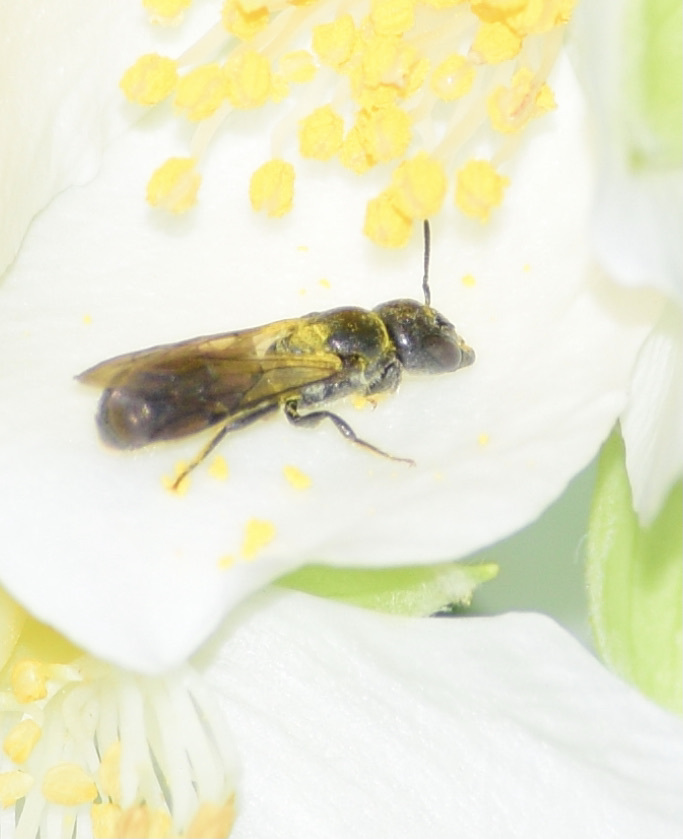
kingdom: Animalia
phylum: Arthropoda
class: Insecta
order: Hymenoptera
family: Megachilidae
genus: Chelostoma
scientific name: Chelostoma philadelphi
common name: Mock-orange scissor bee
